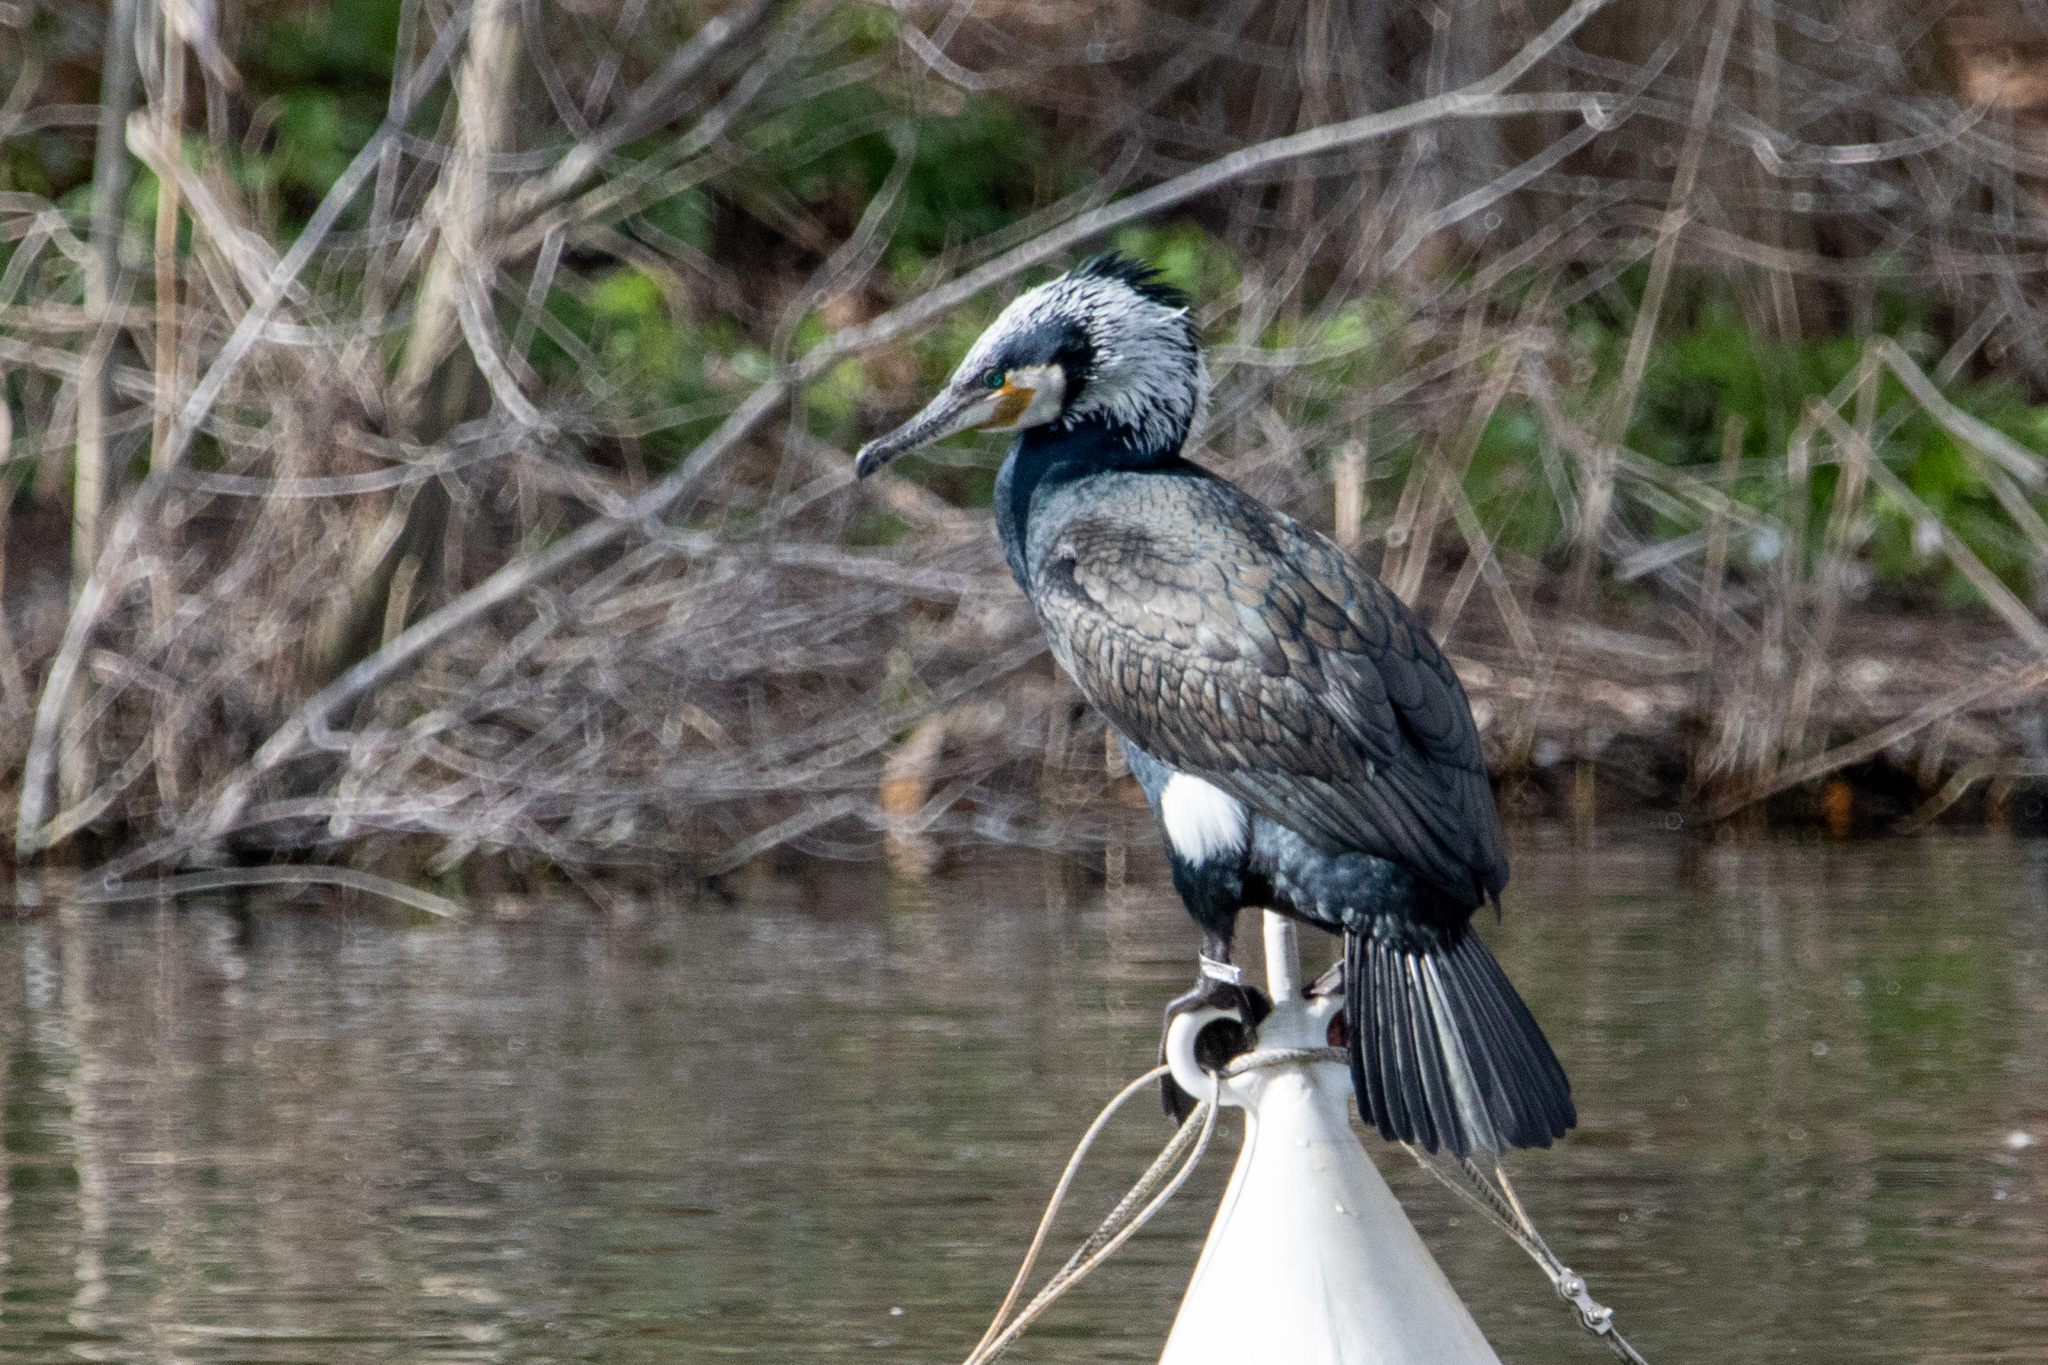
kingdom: Animalia
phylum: Chordata
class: Aves
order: Suliformes
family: Phalacrocoracidae
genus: Phalacrocorax
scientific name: Phalacrocorax carbo
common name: Great cormorant
